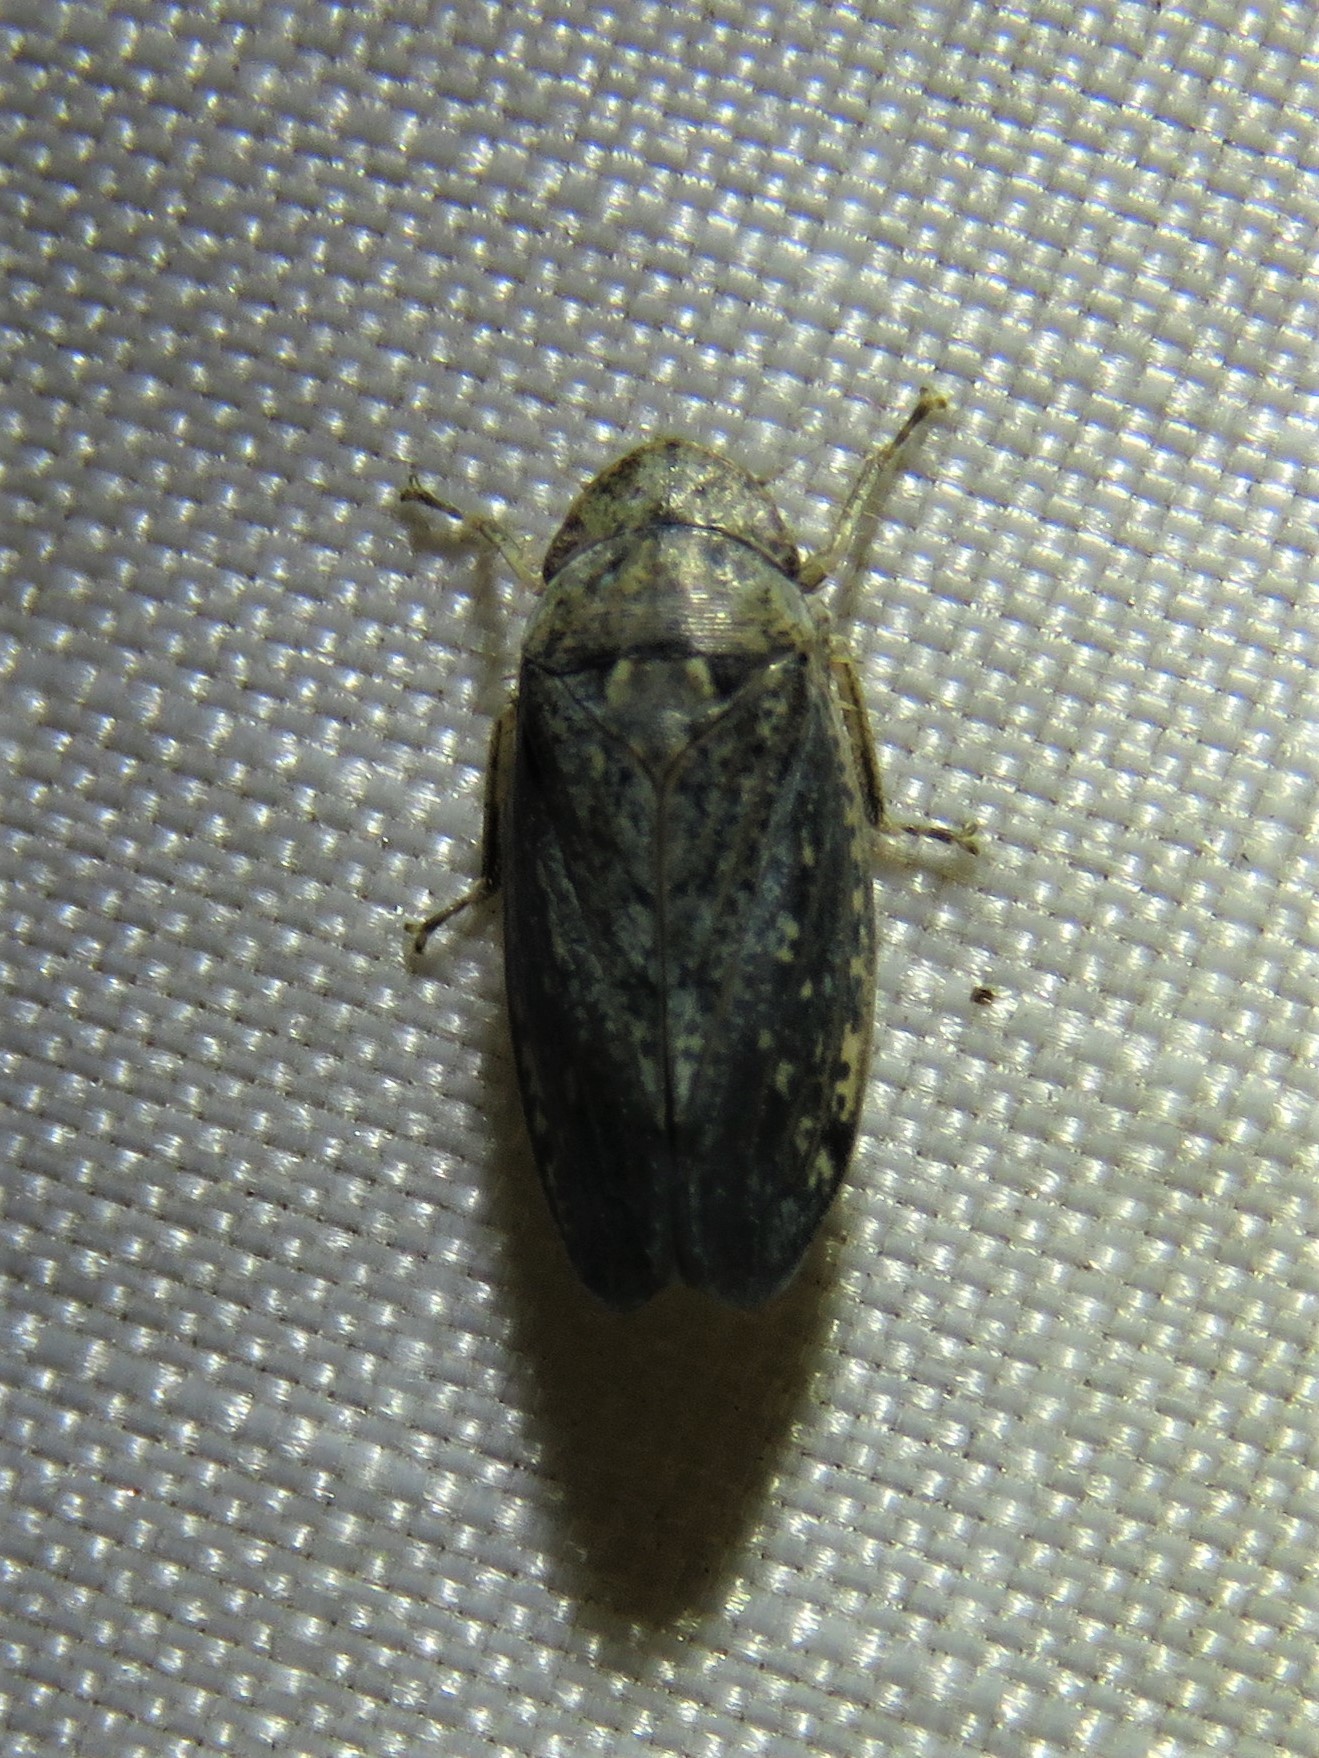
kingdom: Animalia
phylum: Arthropoda
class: Insecta
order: Hemiptera
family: Cicadellidae
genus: Negosiana
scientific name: Negosiana dualis
